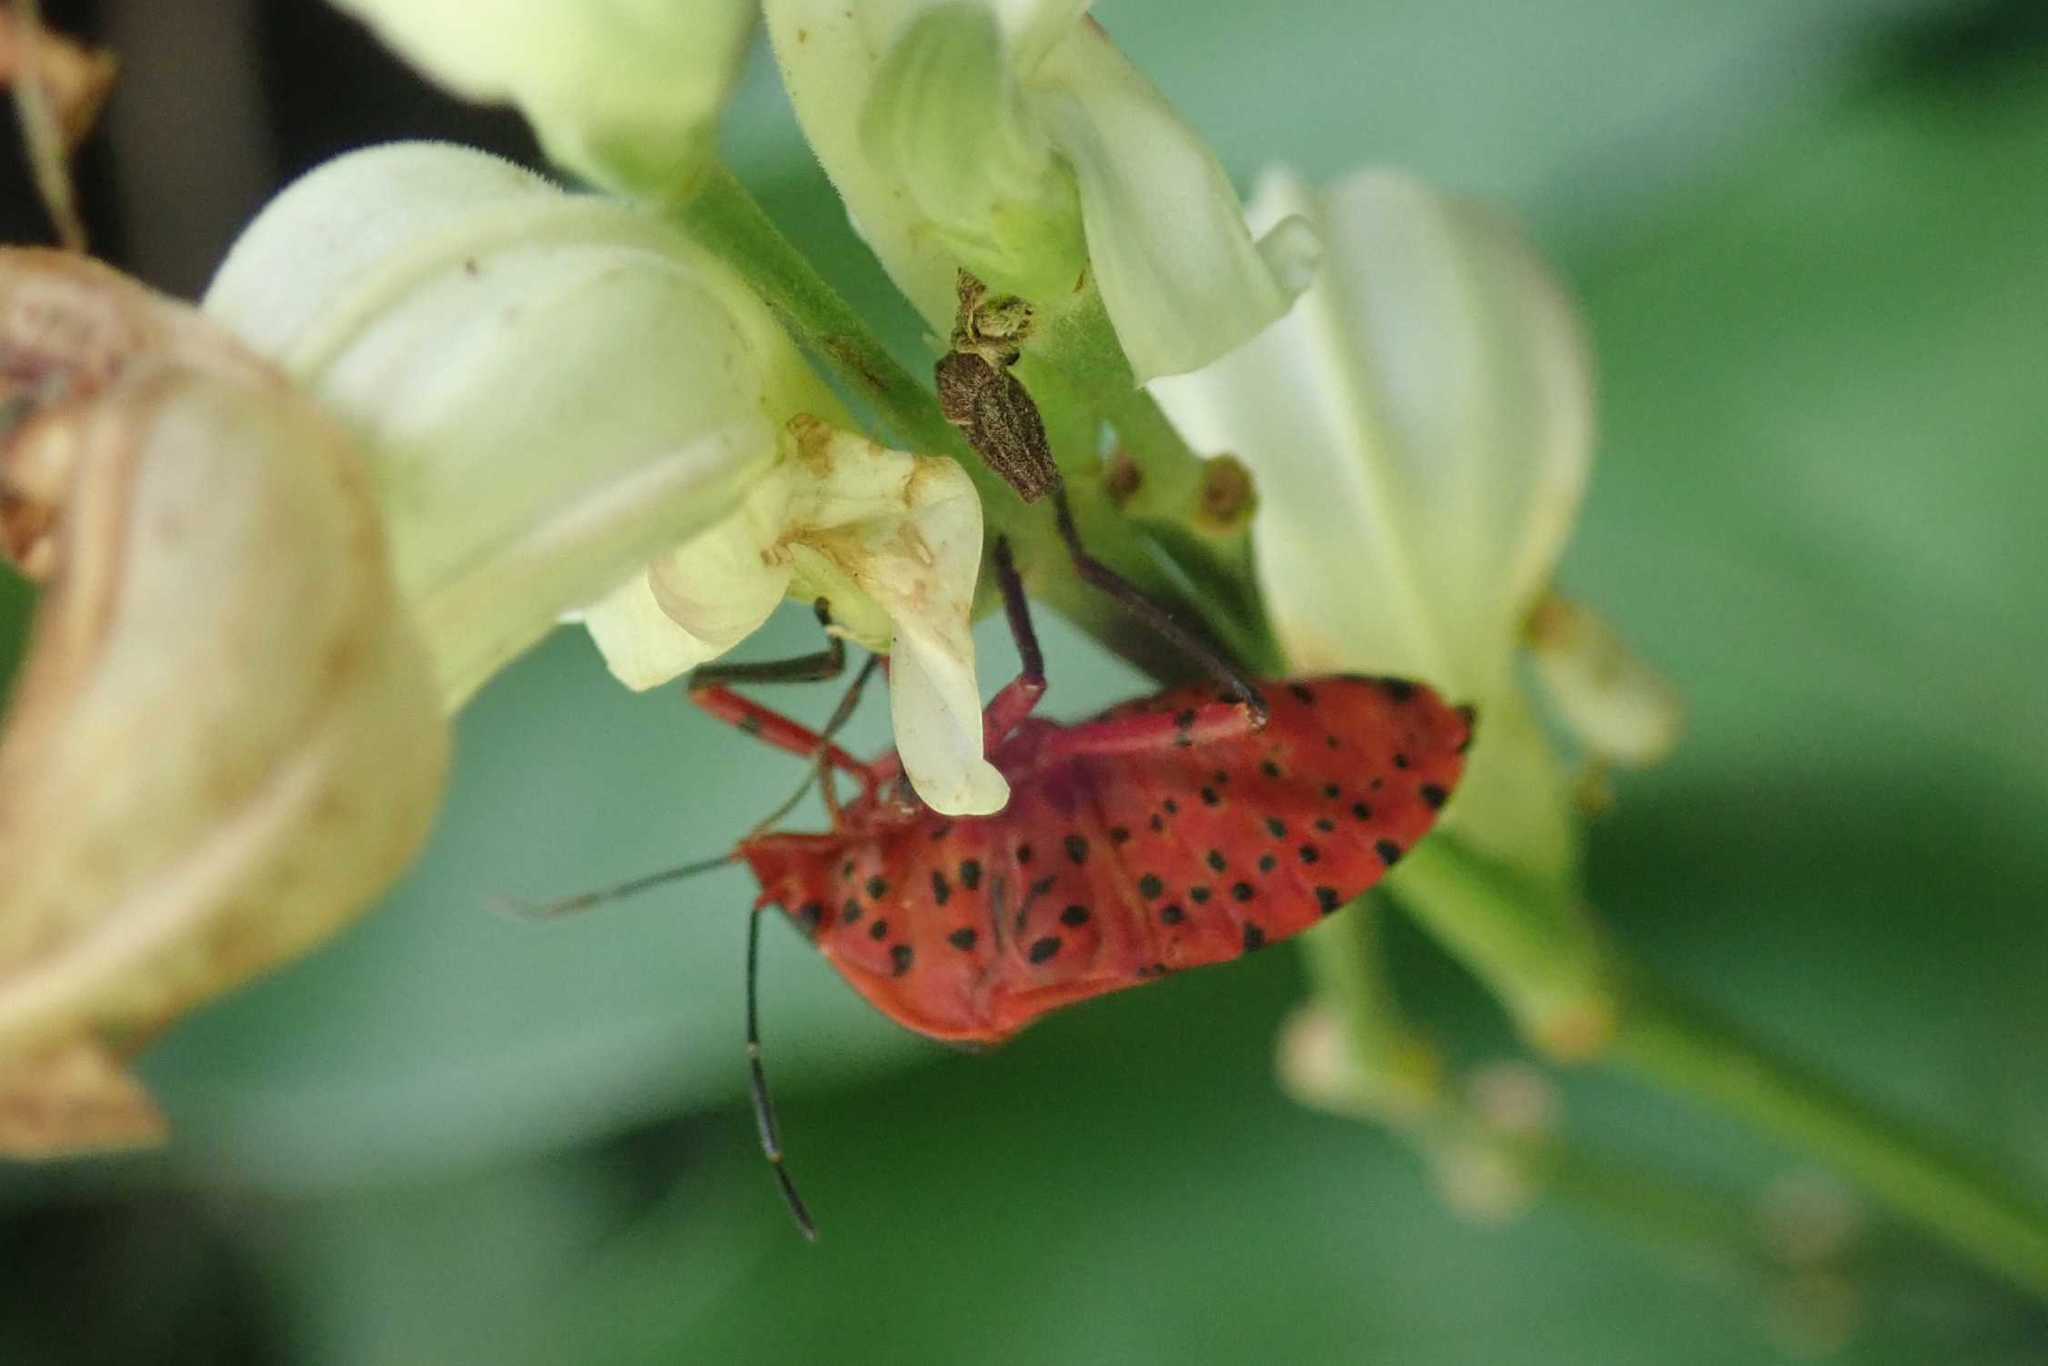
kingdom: Animalia
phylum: Arthropoda
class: Insecta
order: Hemiptera
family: Pentatomidae
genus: Caura
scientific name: Caura rufiventris
